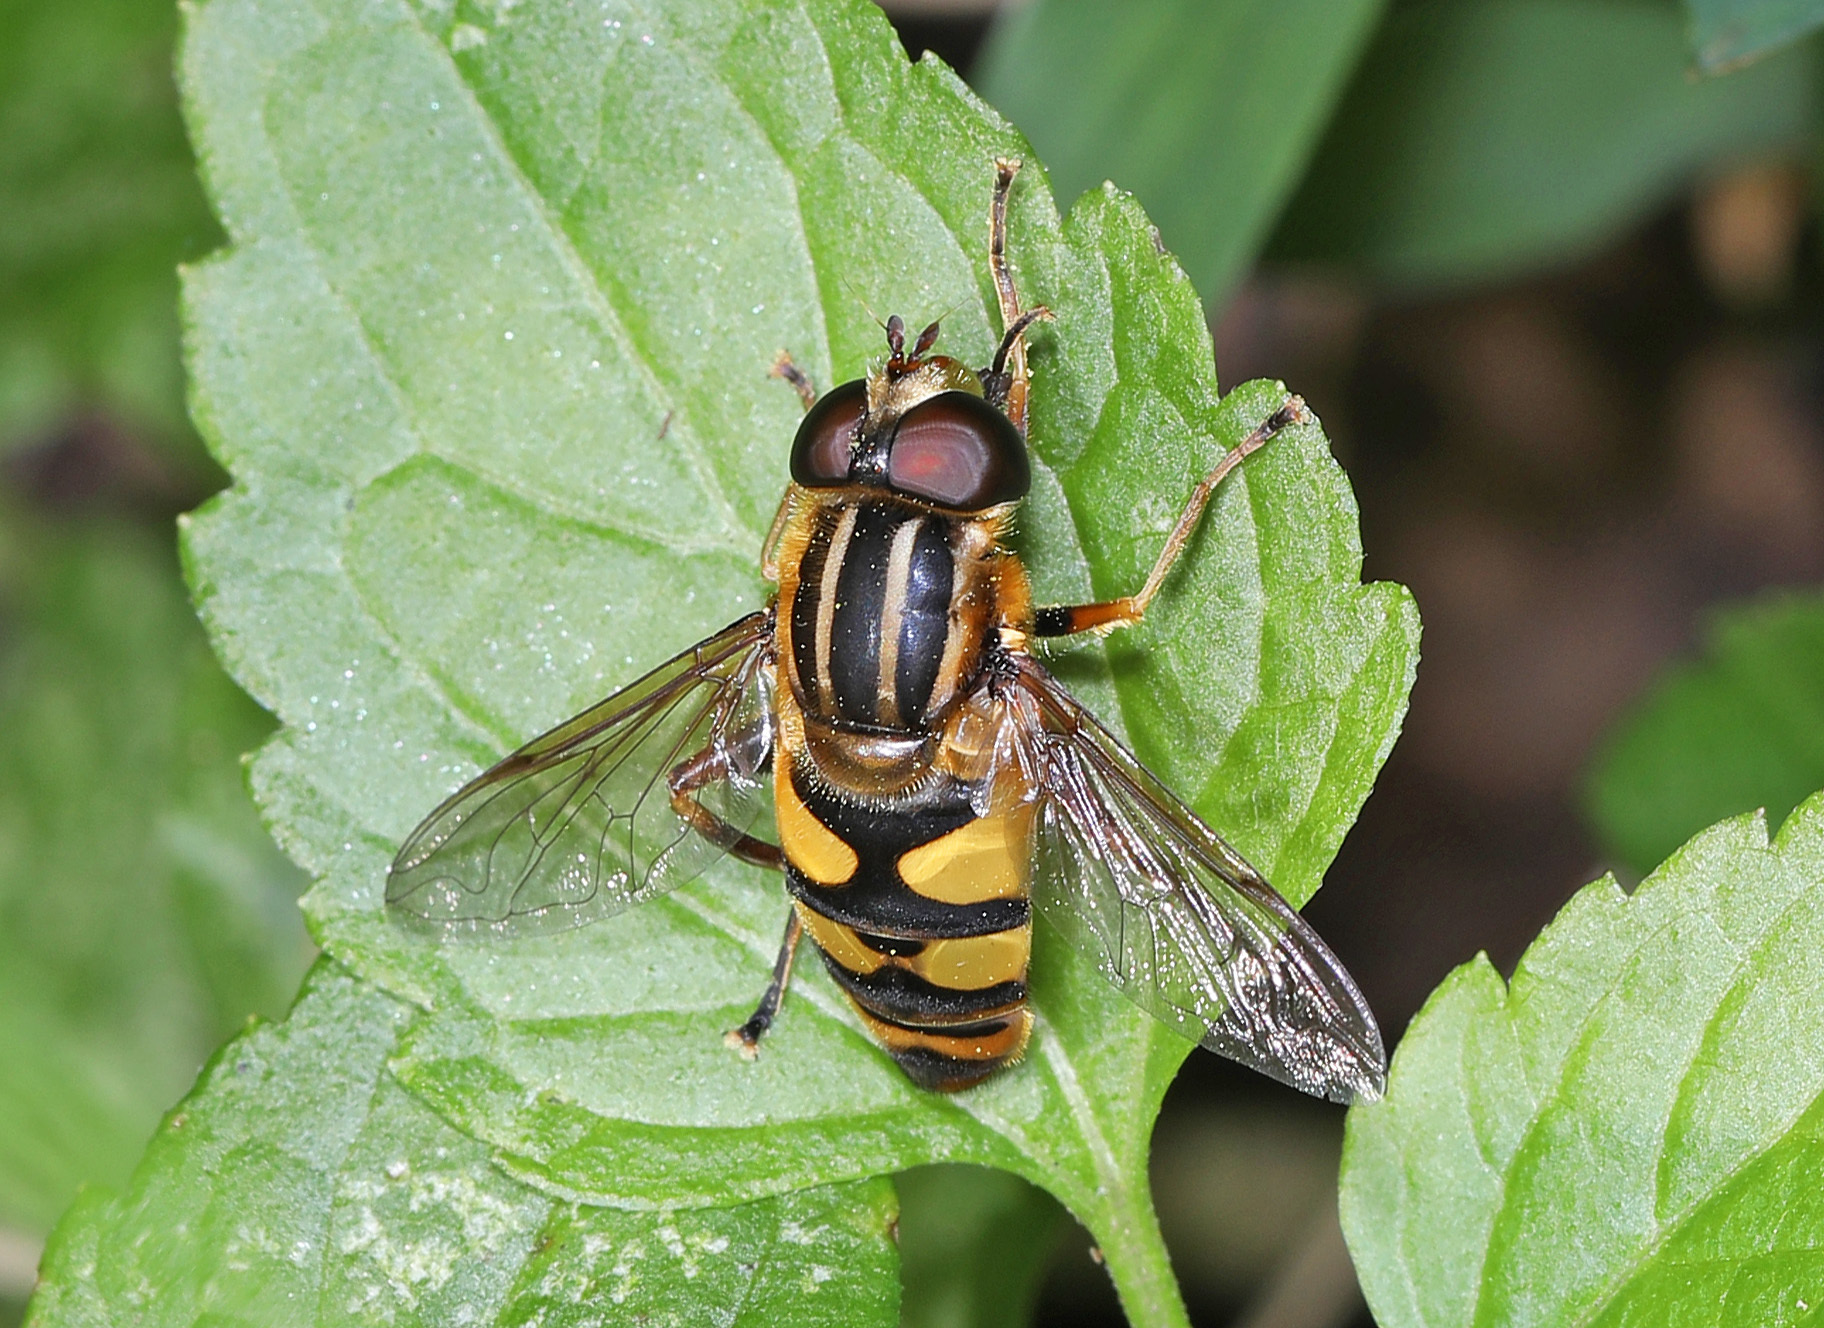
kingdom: Animalia
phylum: Arthropoda
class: Insecta
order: Diptera
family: Syrphidae
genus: Helophilus
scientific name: Helophilus fasciatus
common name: Narrow-headed marsh fly
